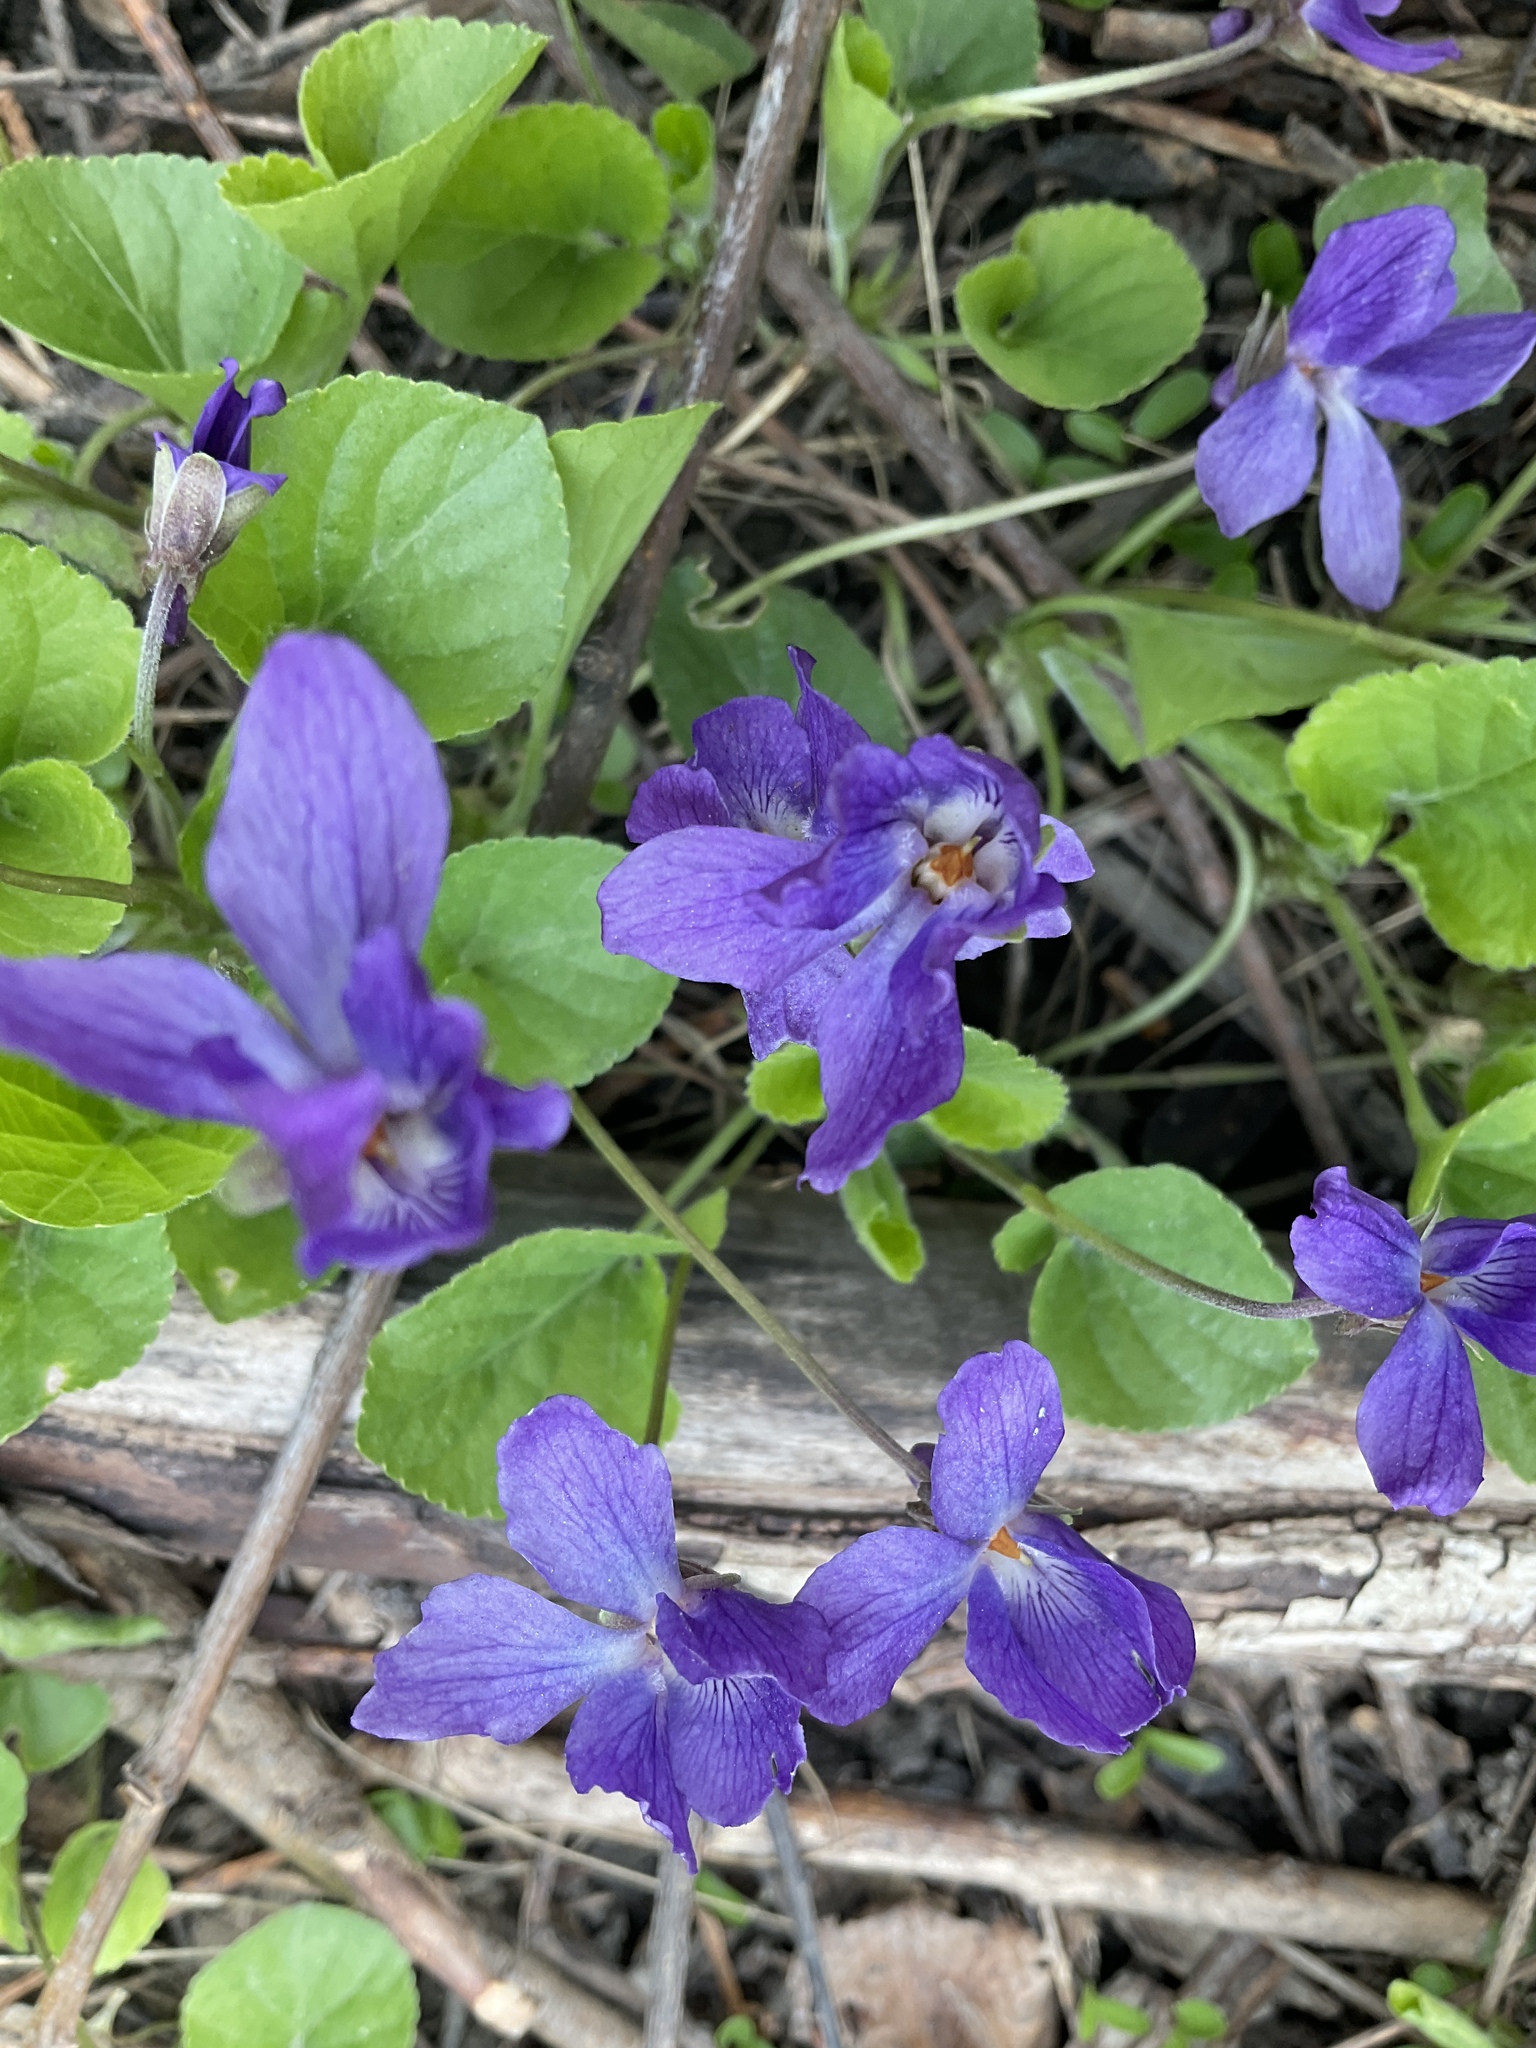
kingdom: Plantae
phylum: Tracheophyta
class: Magnoliopsida
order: Malpighiales
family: Violaceae
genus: Viola
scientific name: Viola odorata
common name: Sweet violet
